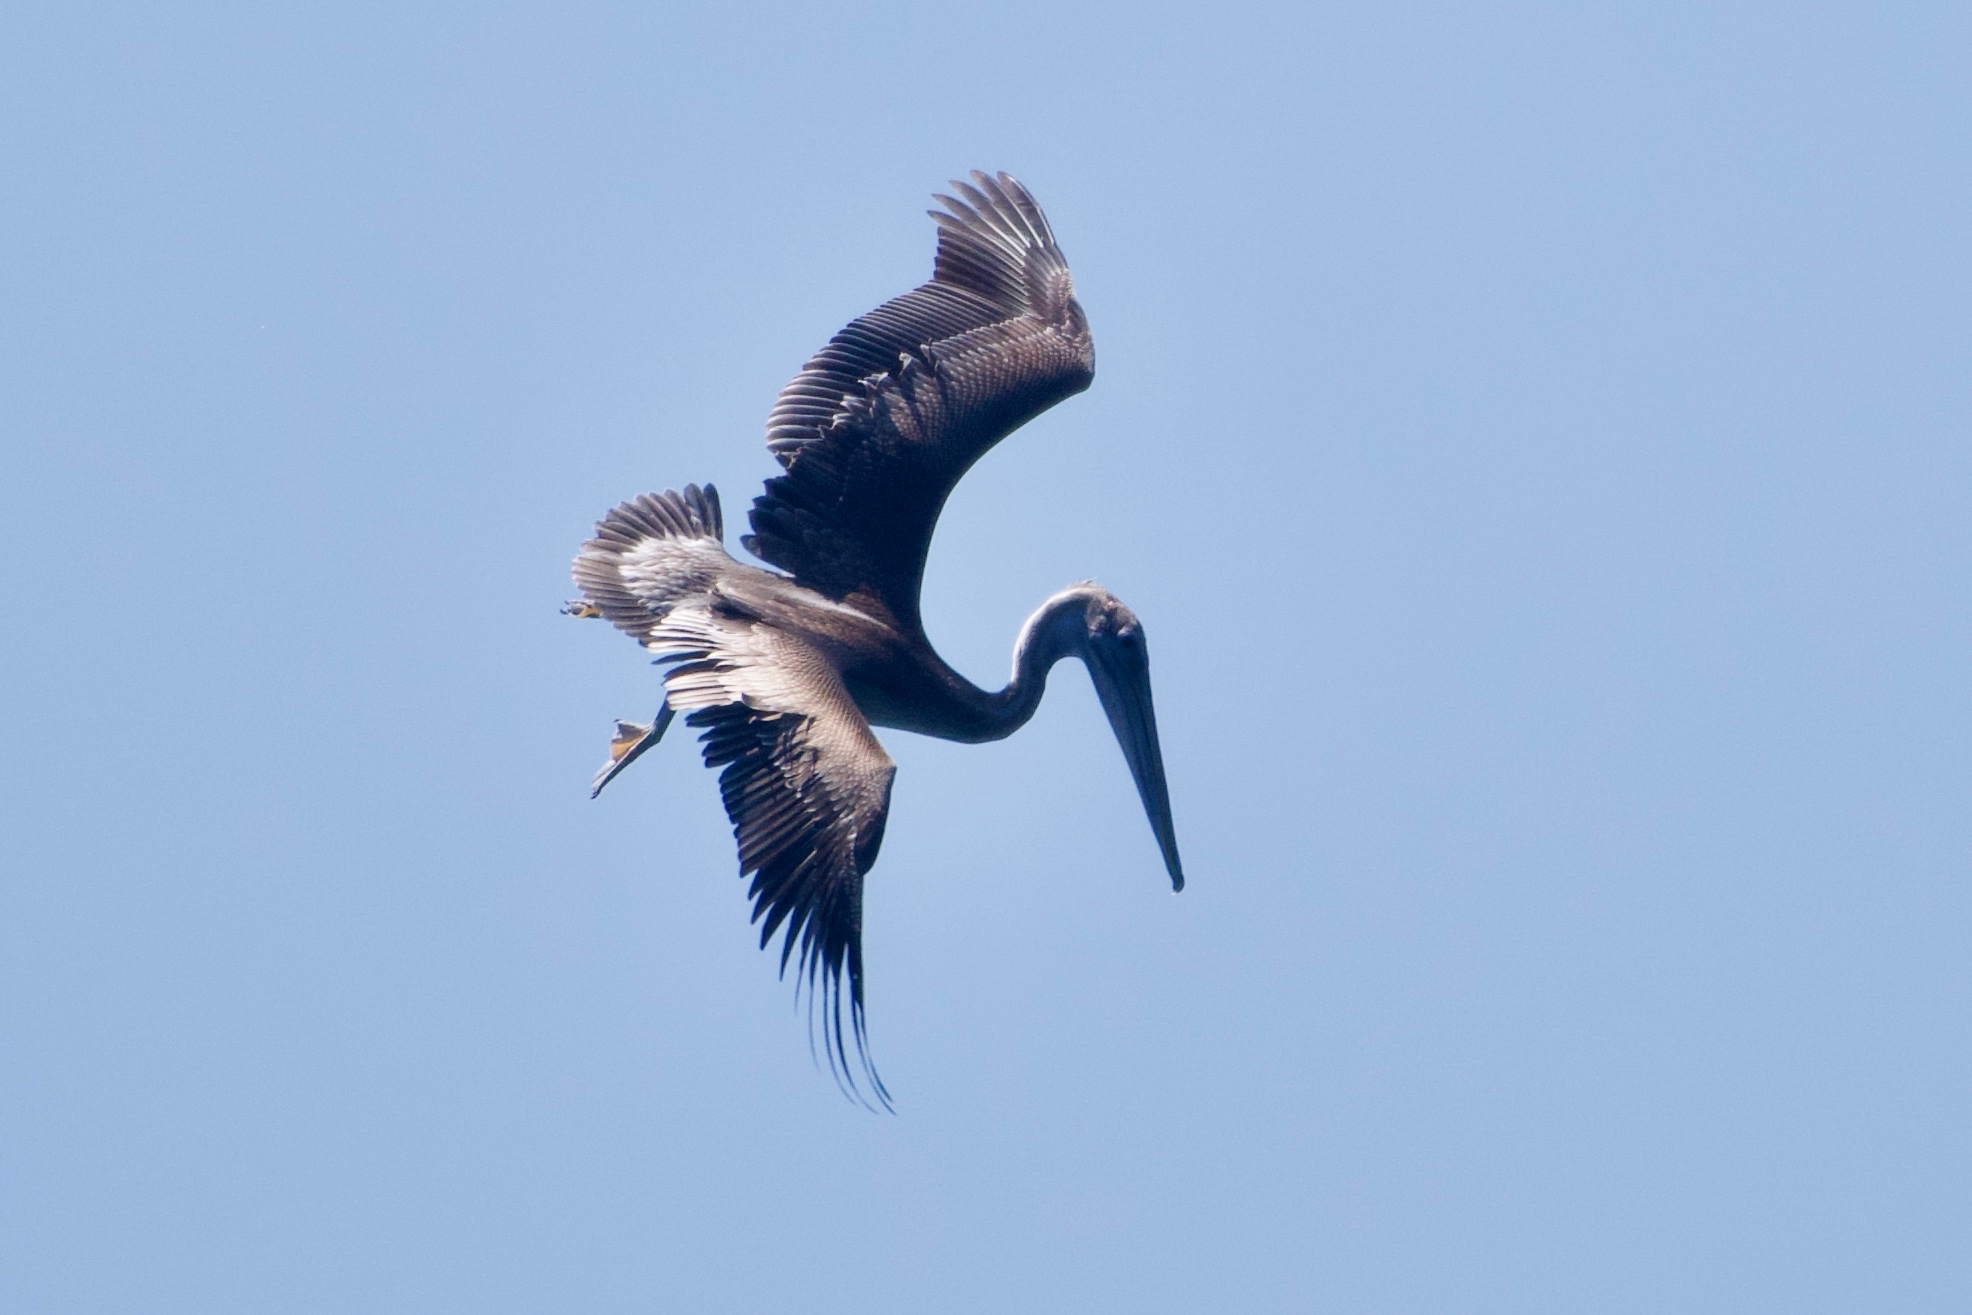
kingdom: Animalia
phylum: Chordata
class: Aves
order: Pelecaniformes
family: Pelecanidae
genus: Pelecanus
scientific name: Pelecanus occidentalis
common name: Brown pelican
